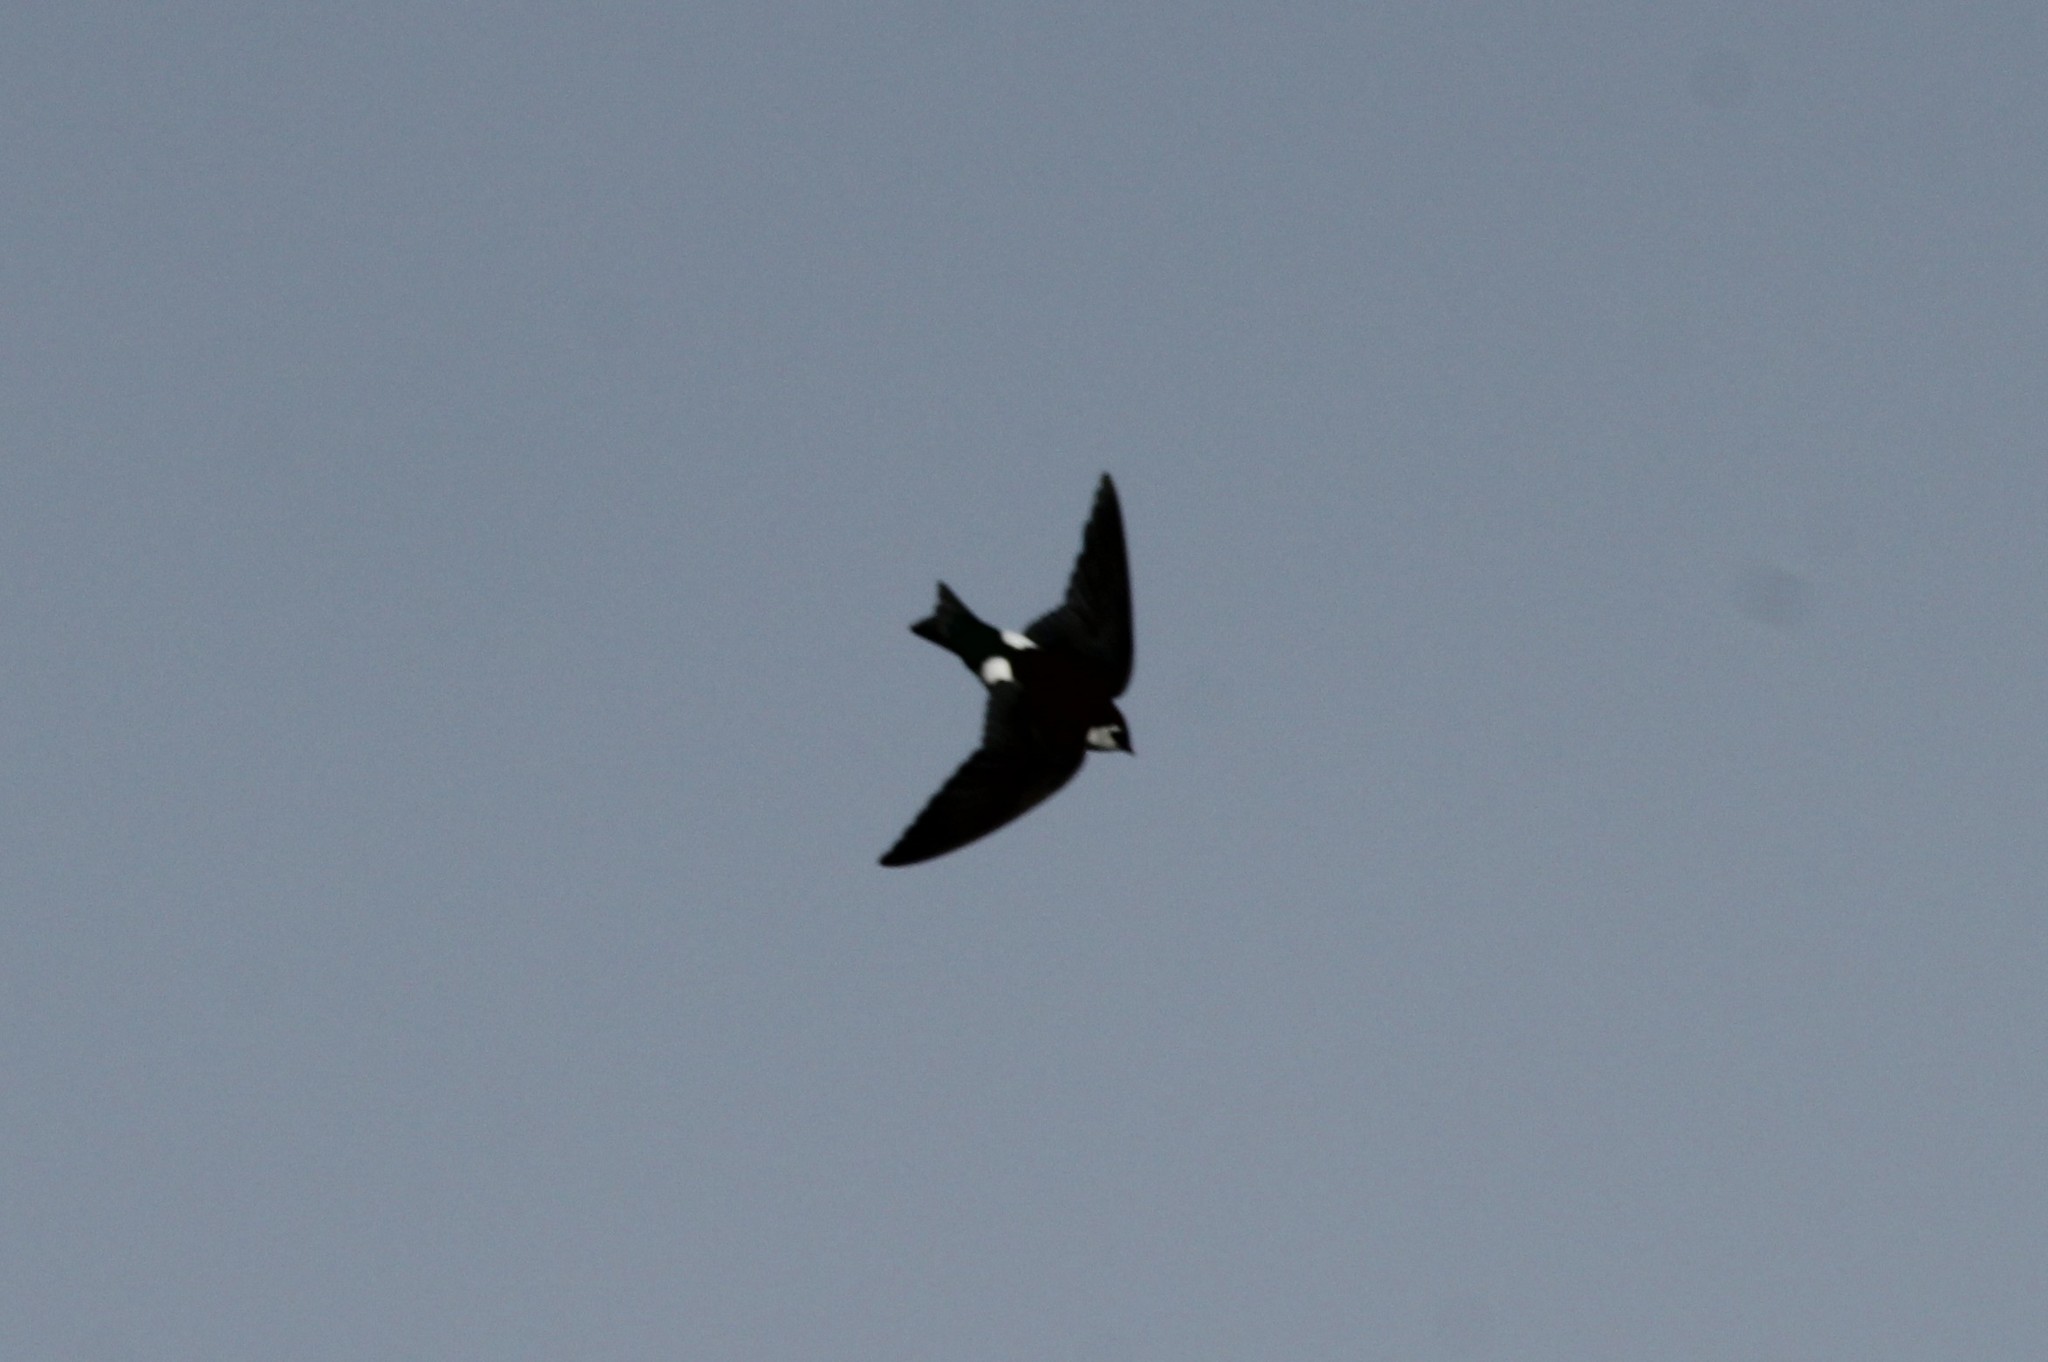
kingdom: Animalia
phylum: Chordata
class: Aves
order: Passeriformes
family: Hirundinidae
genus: Tachycineta
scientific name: Tachycineta thalassina
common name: Violet-green swallow
